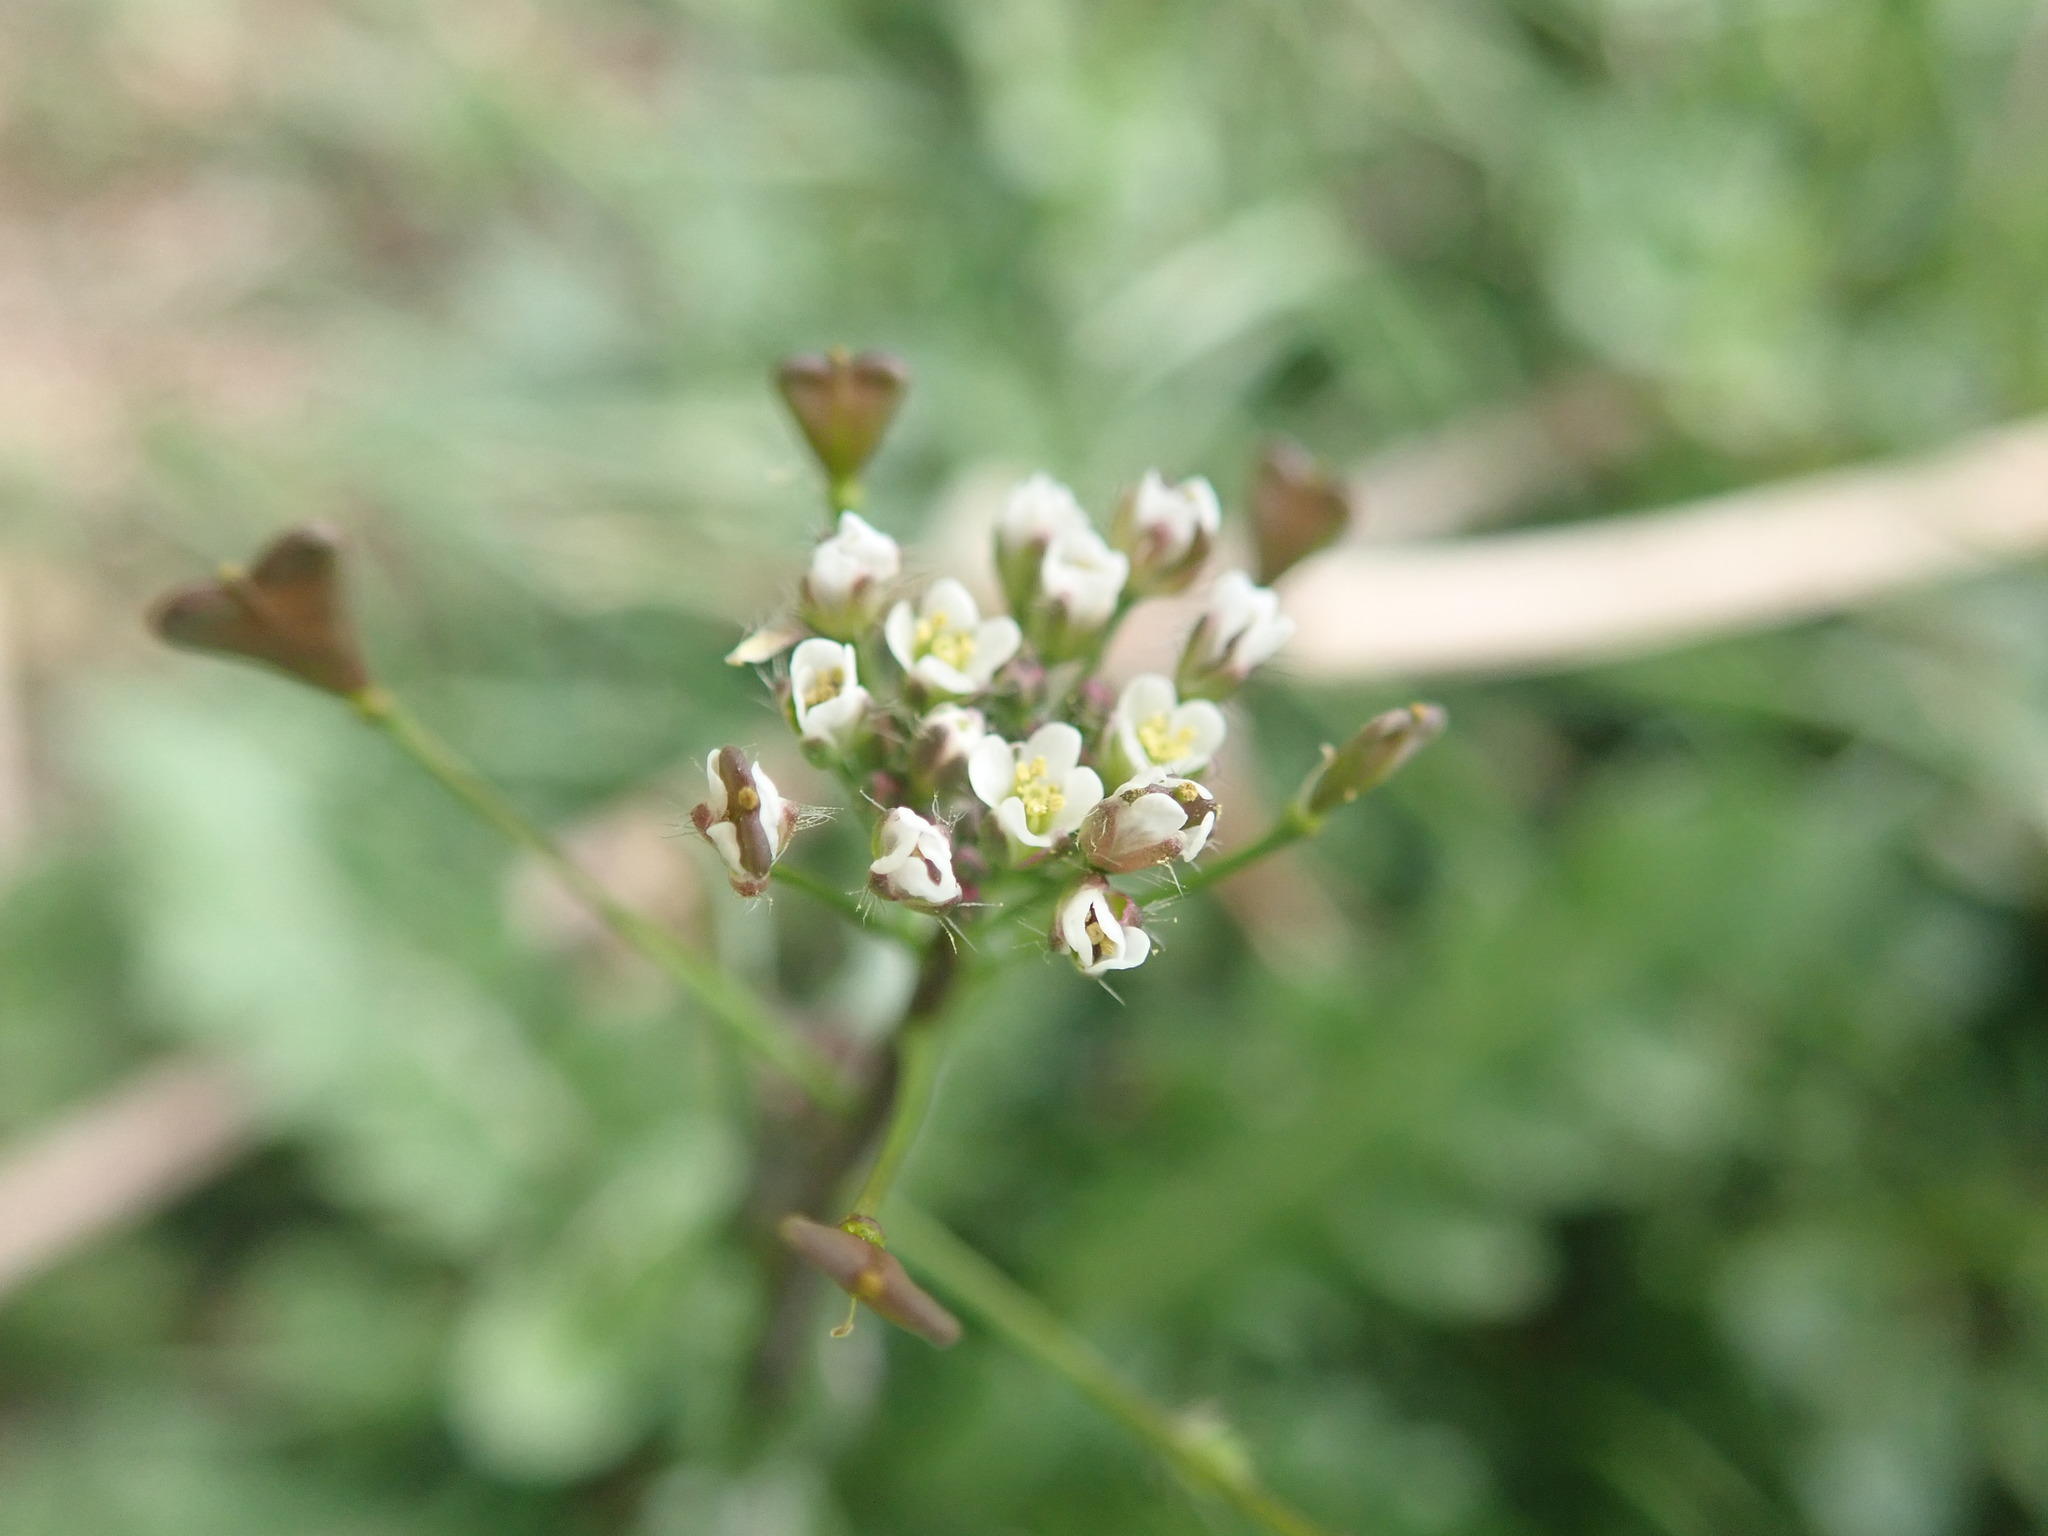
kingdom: Plantae
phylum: Tracheophyta
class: Magnoliopsida
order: Brassicales
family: Brassicaceae
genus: Capsella
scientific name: Capsella bursa-pastoris
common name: Shepherd's purse
